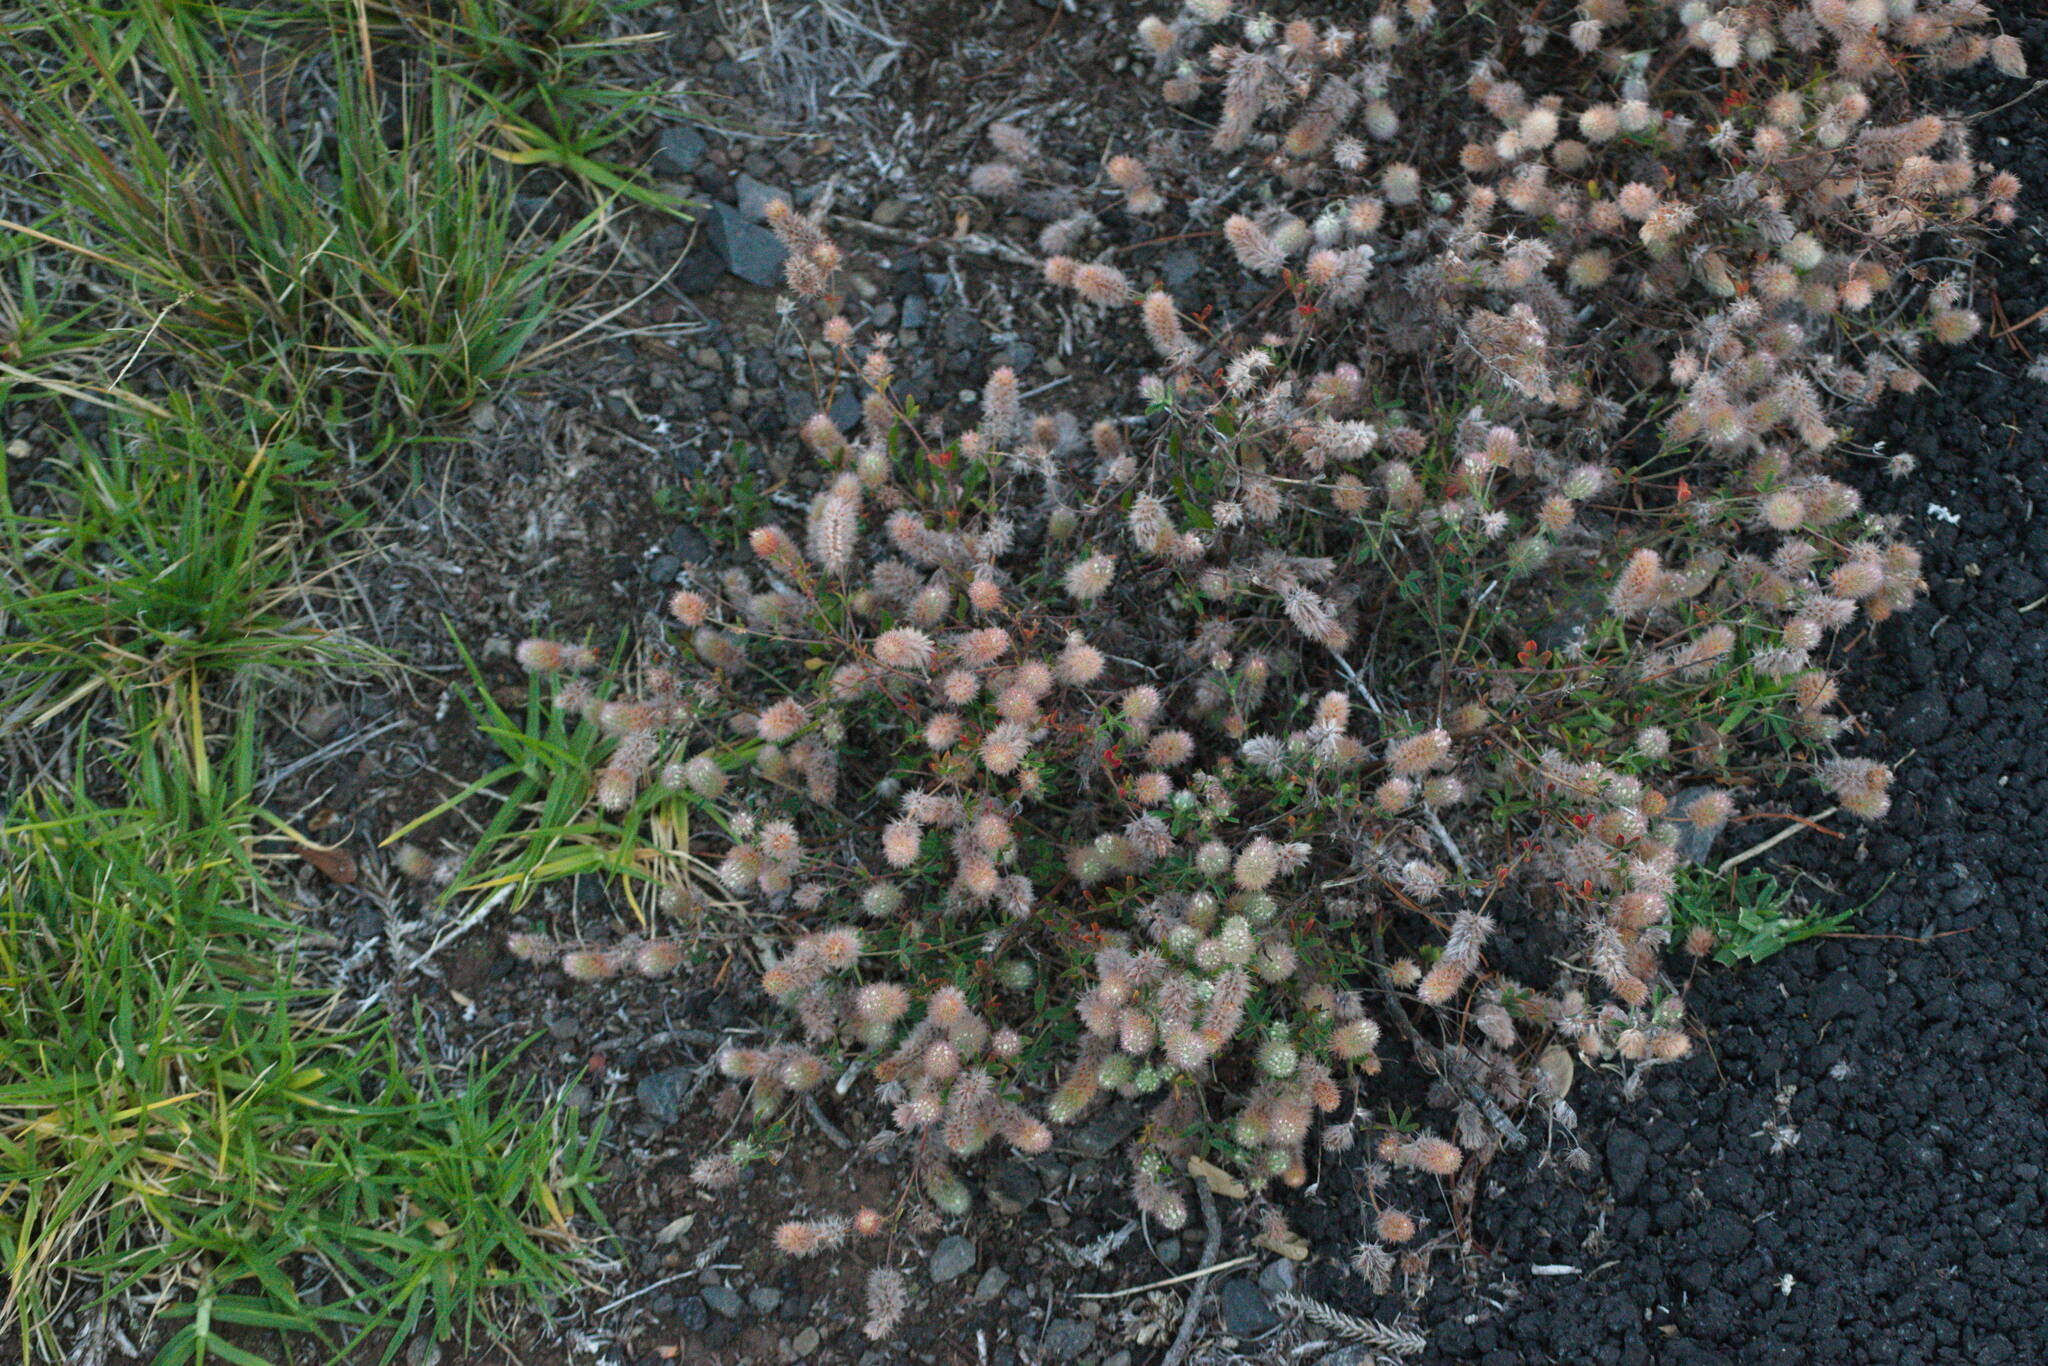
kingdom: Plantae
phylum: Tracheophyta
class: Magnoliopsida
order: Fabales
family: Fabaceae
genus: Trifolium
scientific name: Trifolium arvense
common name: Hare's-foot clover
